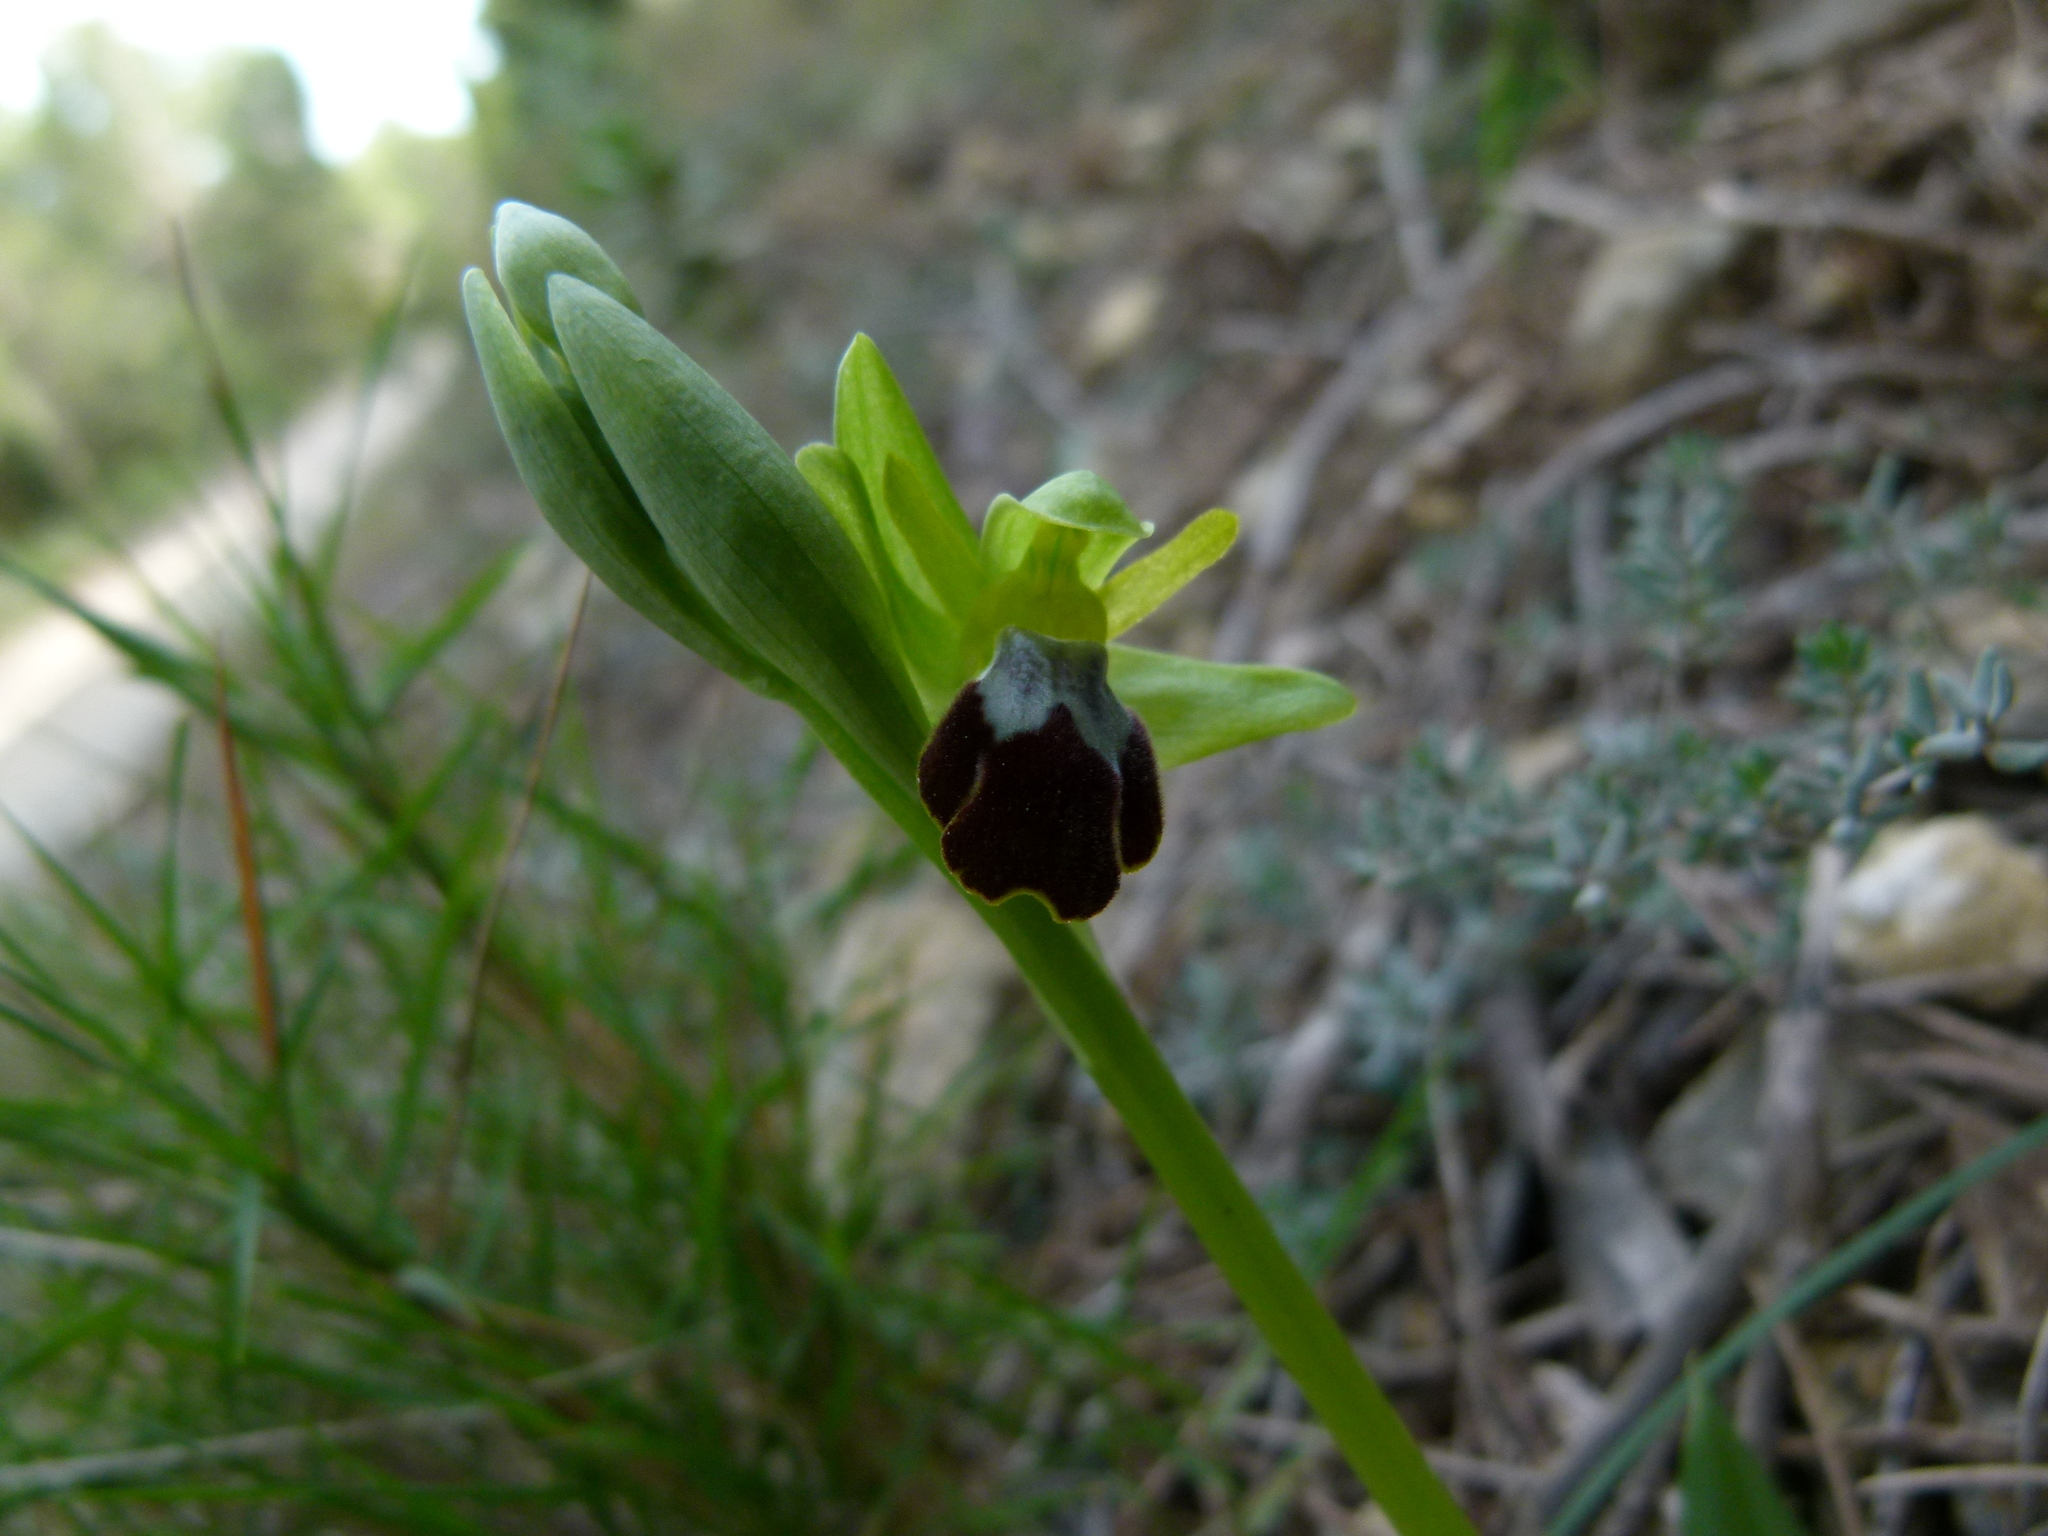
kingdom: Plantae
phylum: Tracheophyta
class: Liliopsida
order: Asparagales
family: Orchidaceae
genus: Ophrys
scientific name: Ophrys fusca
